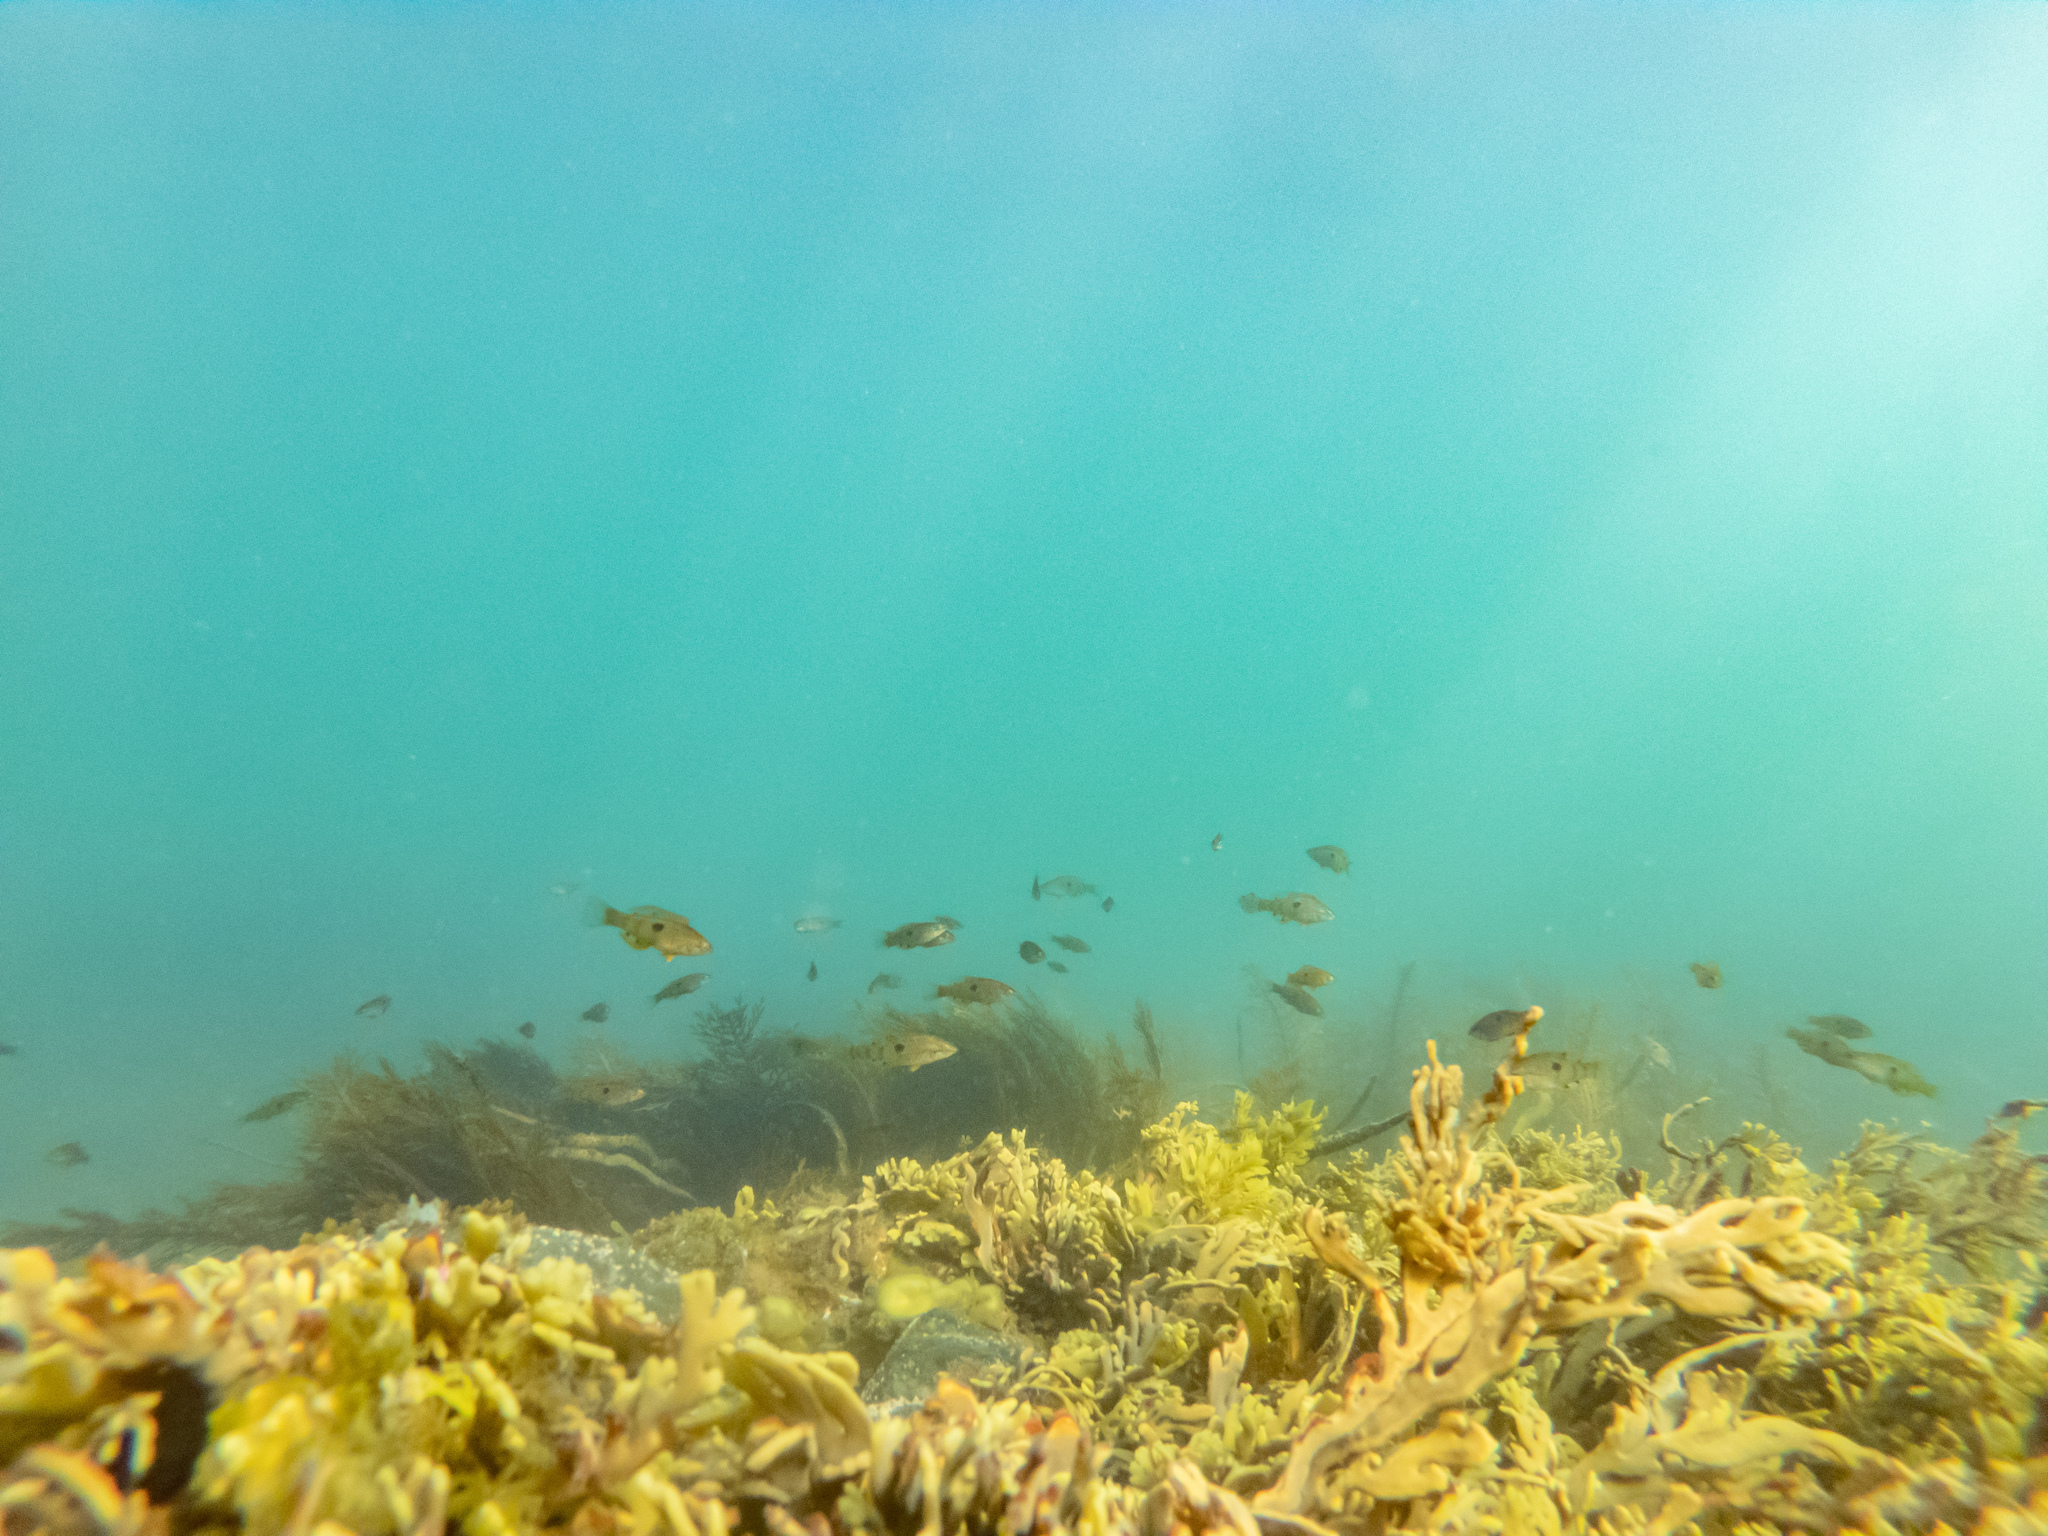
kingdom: Animalia
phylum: Chordata
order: Perciformes
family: Labridae
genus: Notolabrus
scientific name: Notolabrus celidotus
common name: Spotty
